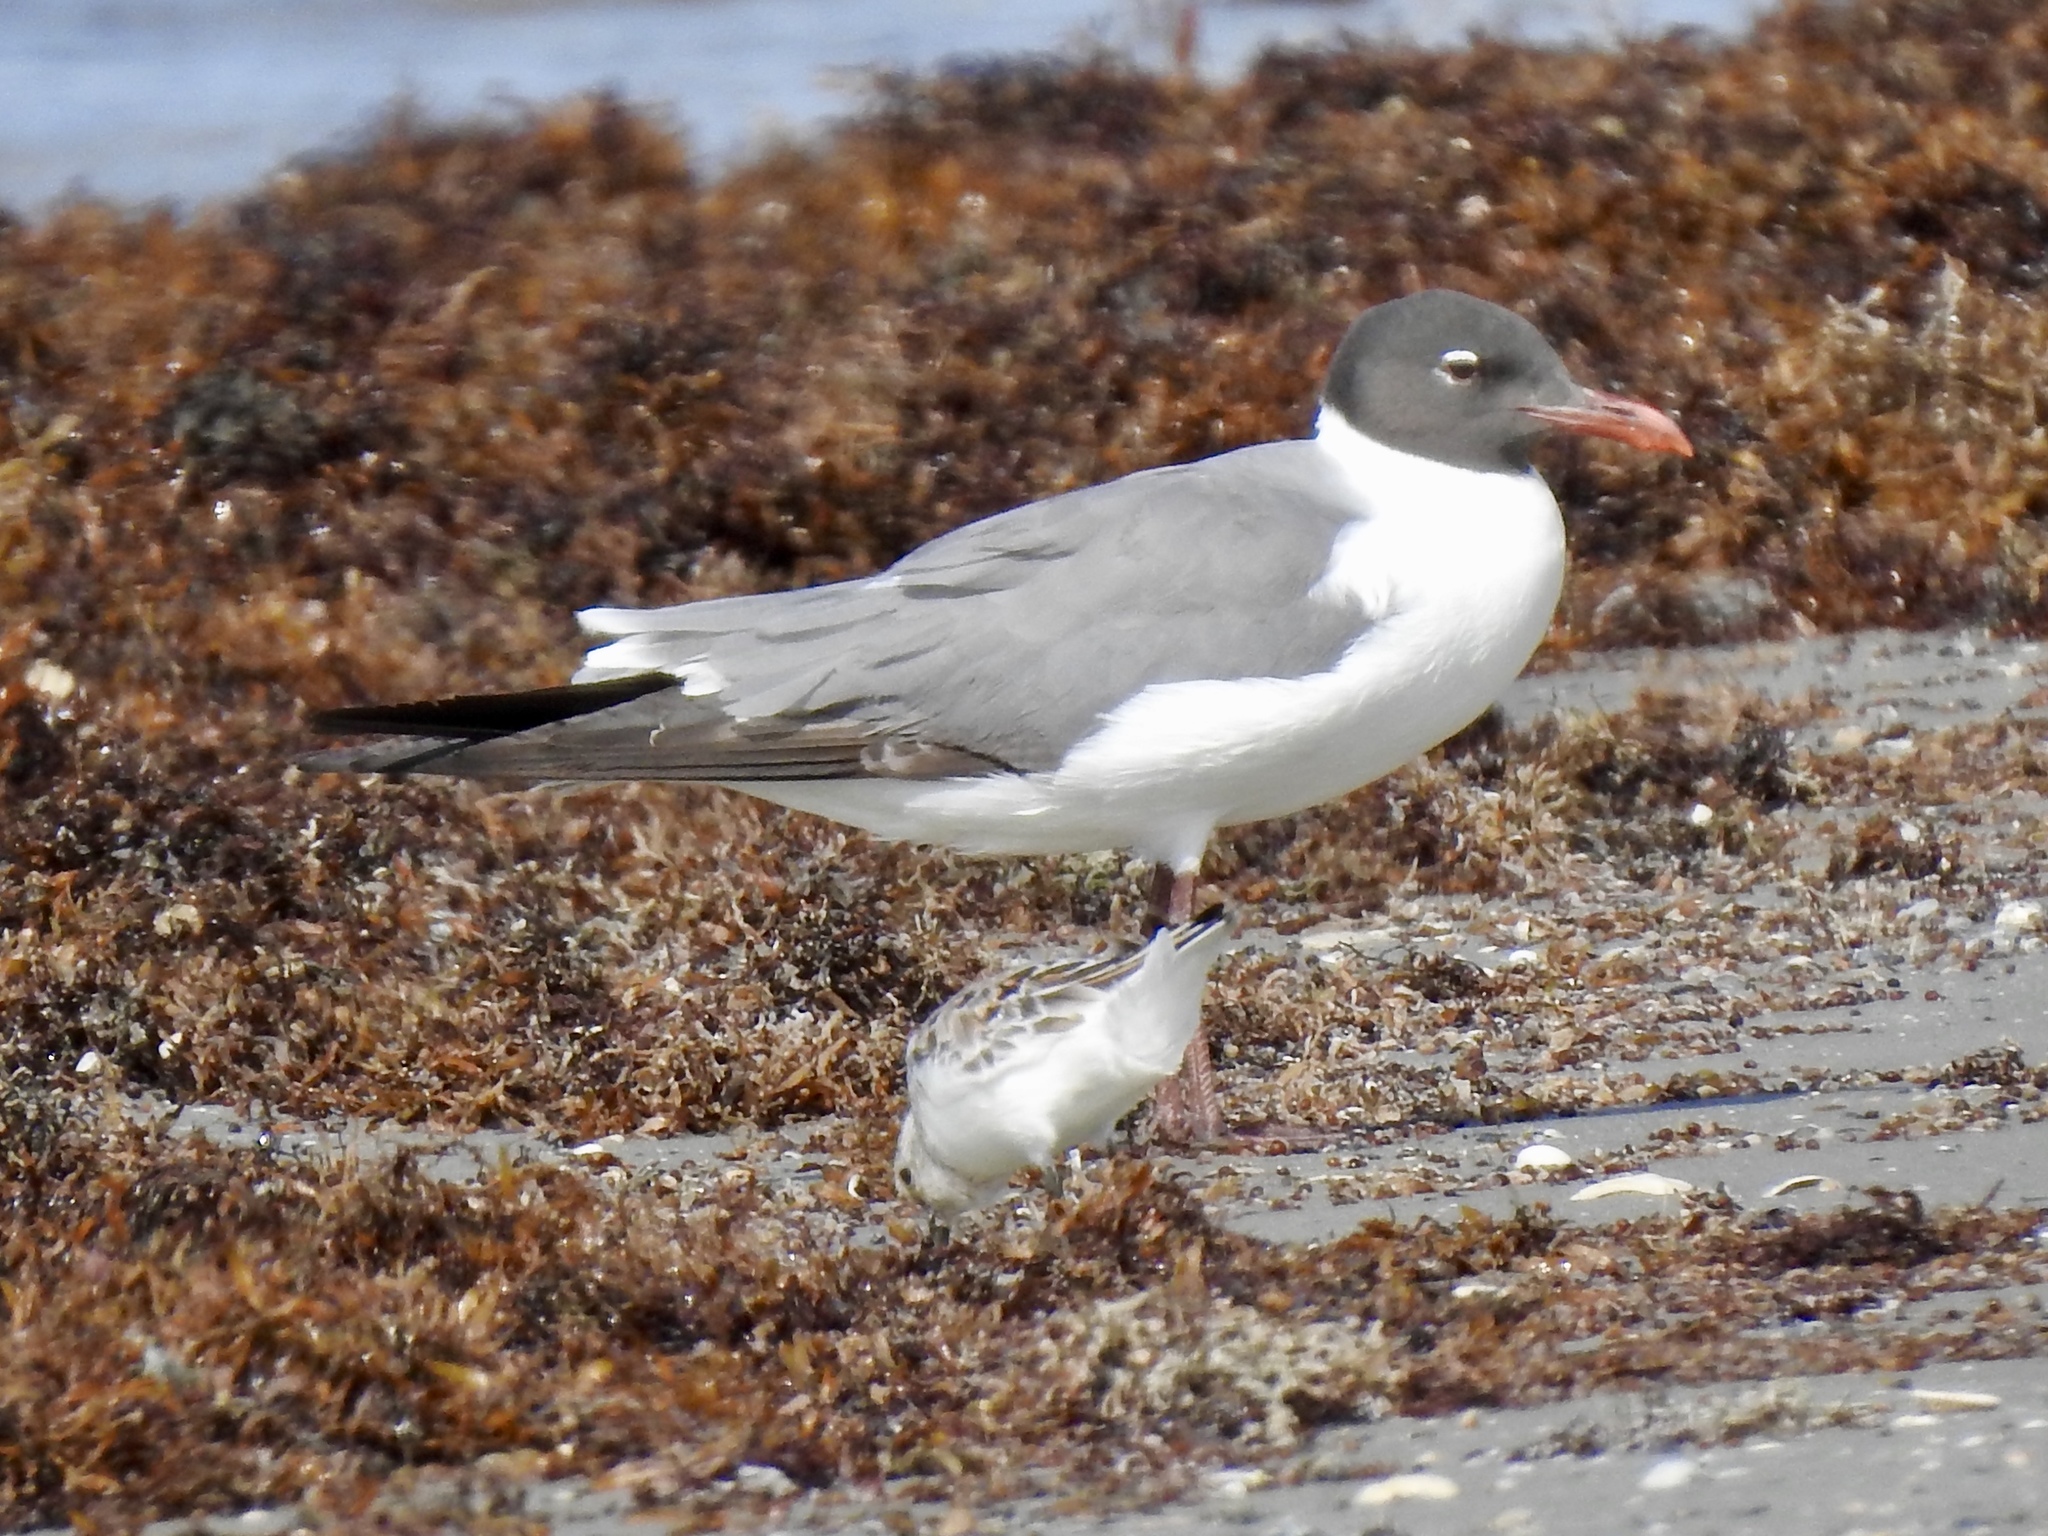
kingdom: Animalia
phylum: Chordata
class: Aves
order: Charadriiformes
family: Laridae
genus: Leucophaeus
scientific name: Leucophaeus atricilla
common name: Laughing gull
